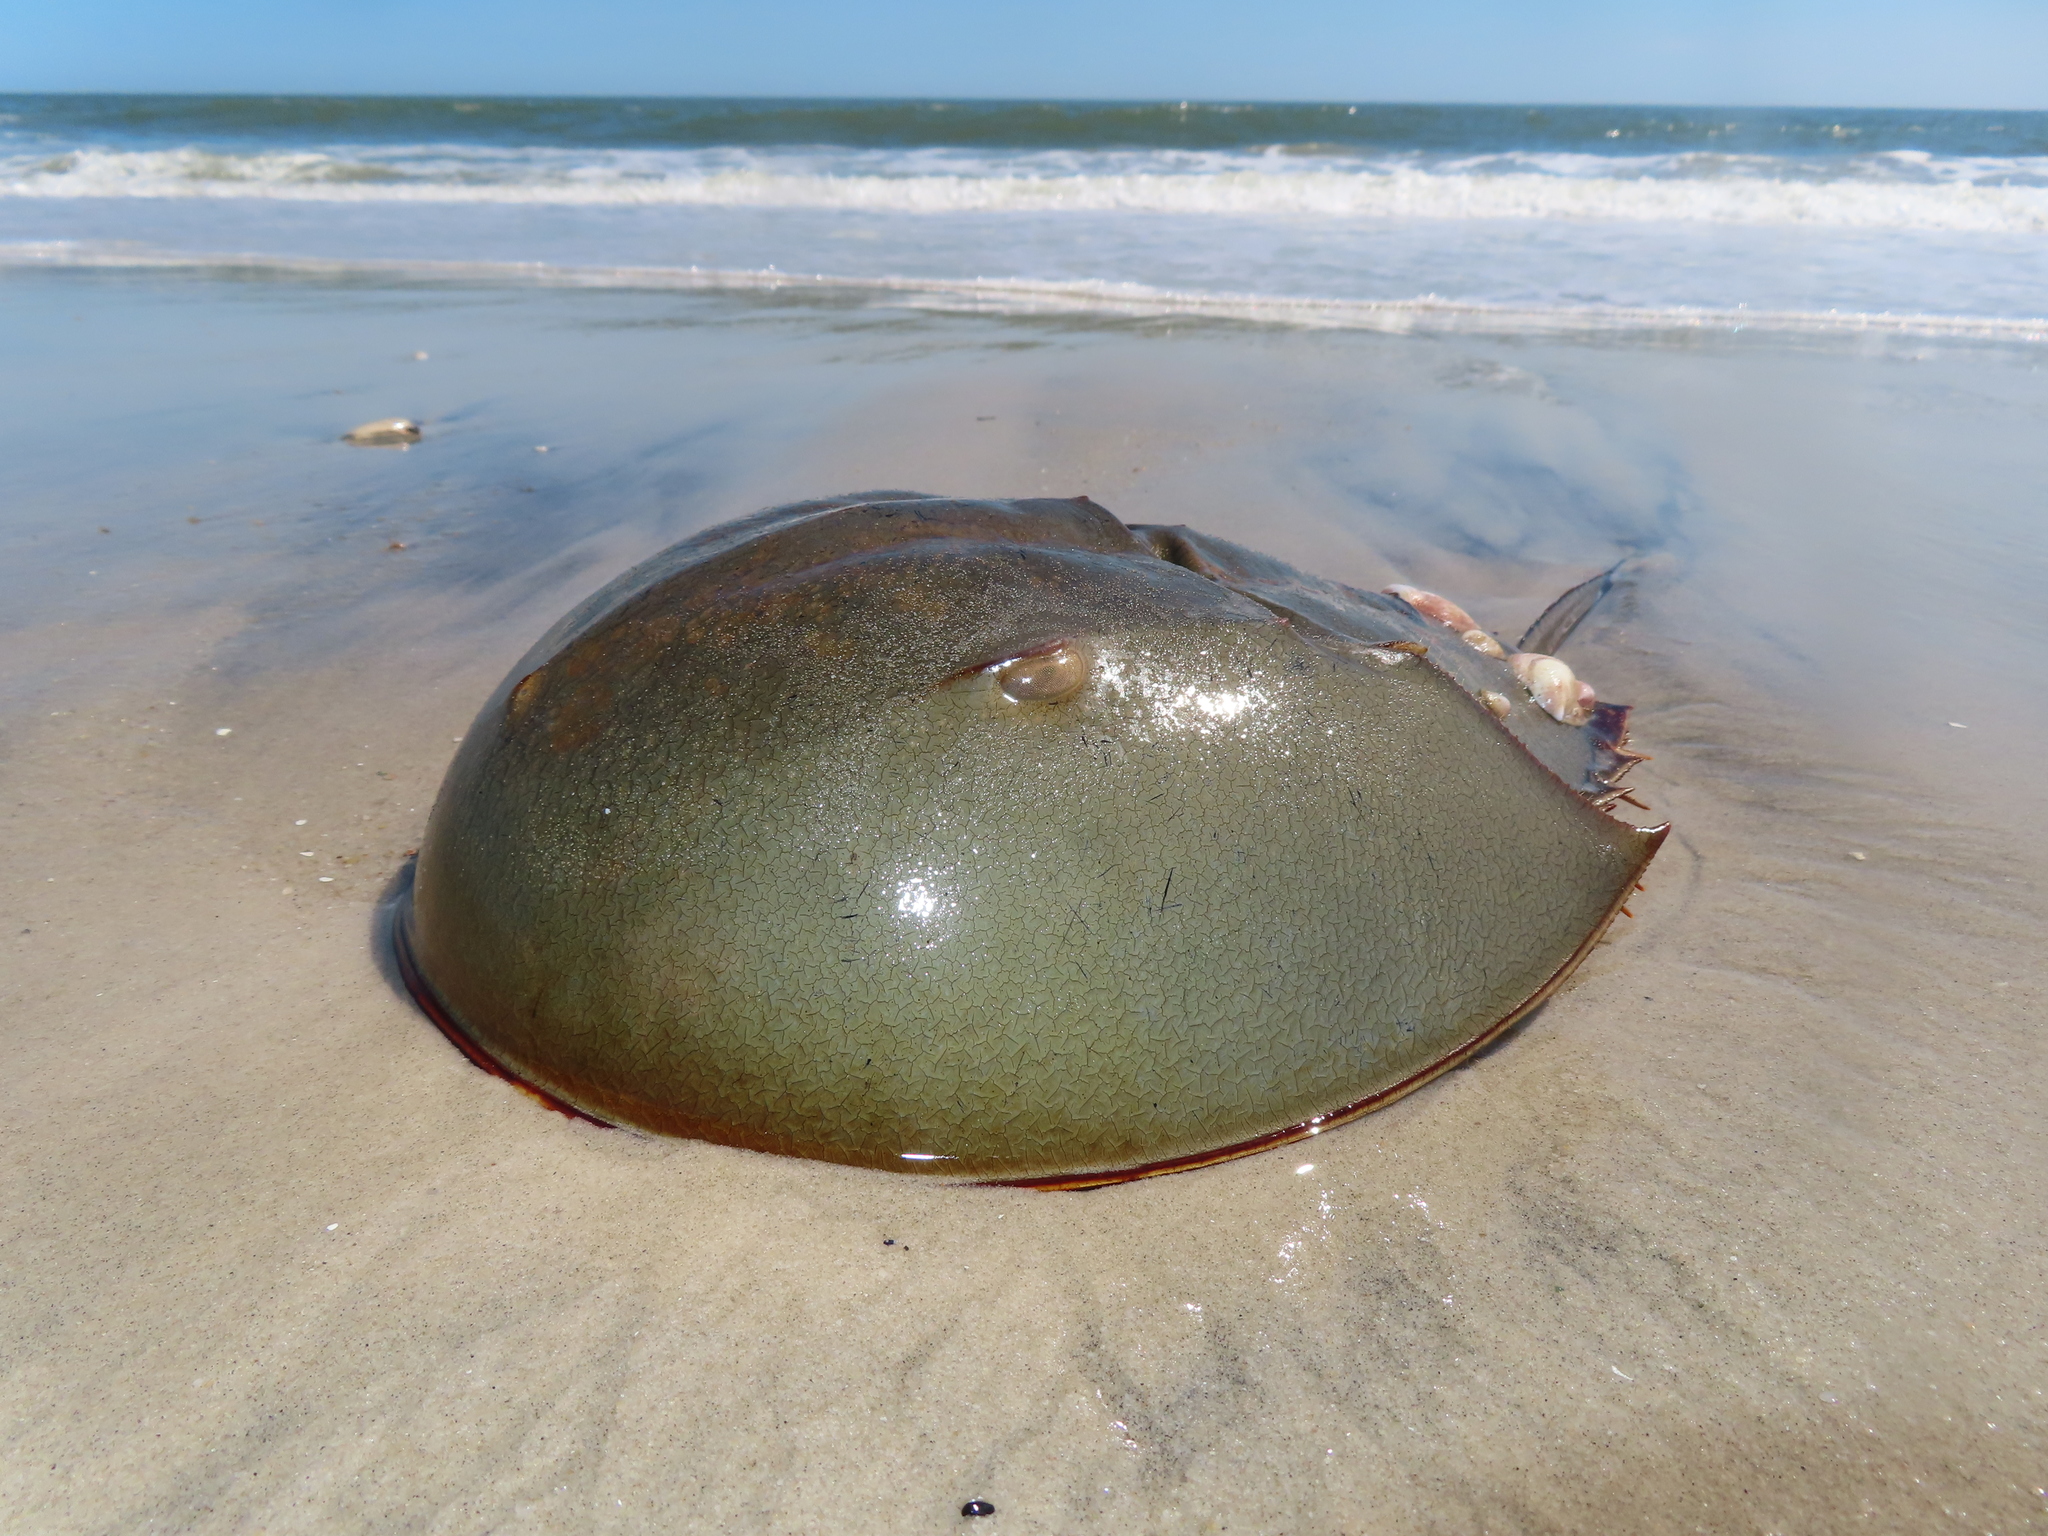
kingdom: Animalia
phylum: Arthropoda
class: Merostomata
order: Xiphosurida
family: Limulidae
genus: Limulus
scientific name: Limulus polyphemus
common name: Horseshoe crab
